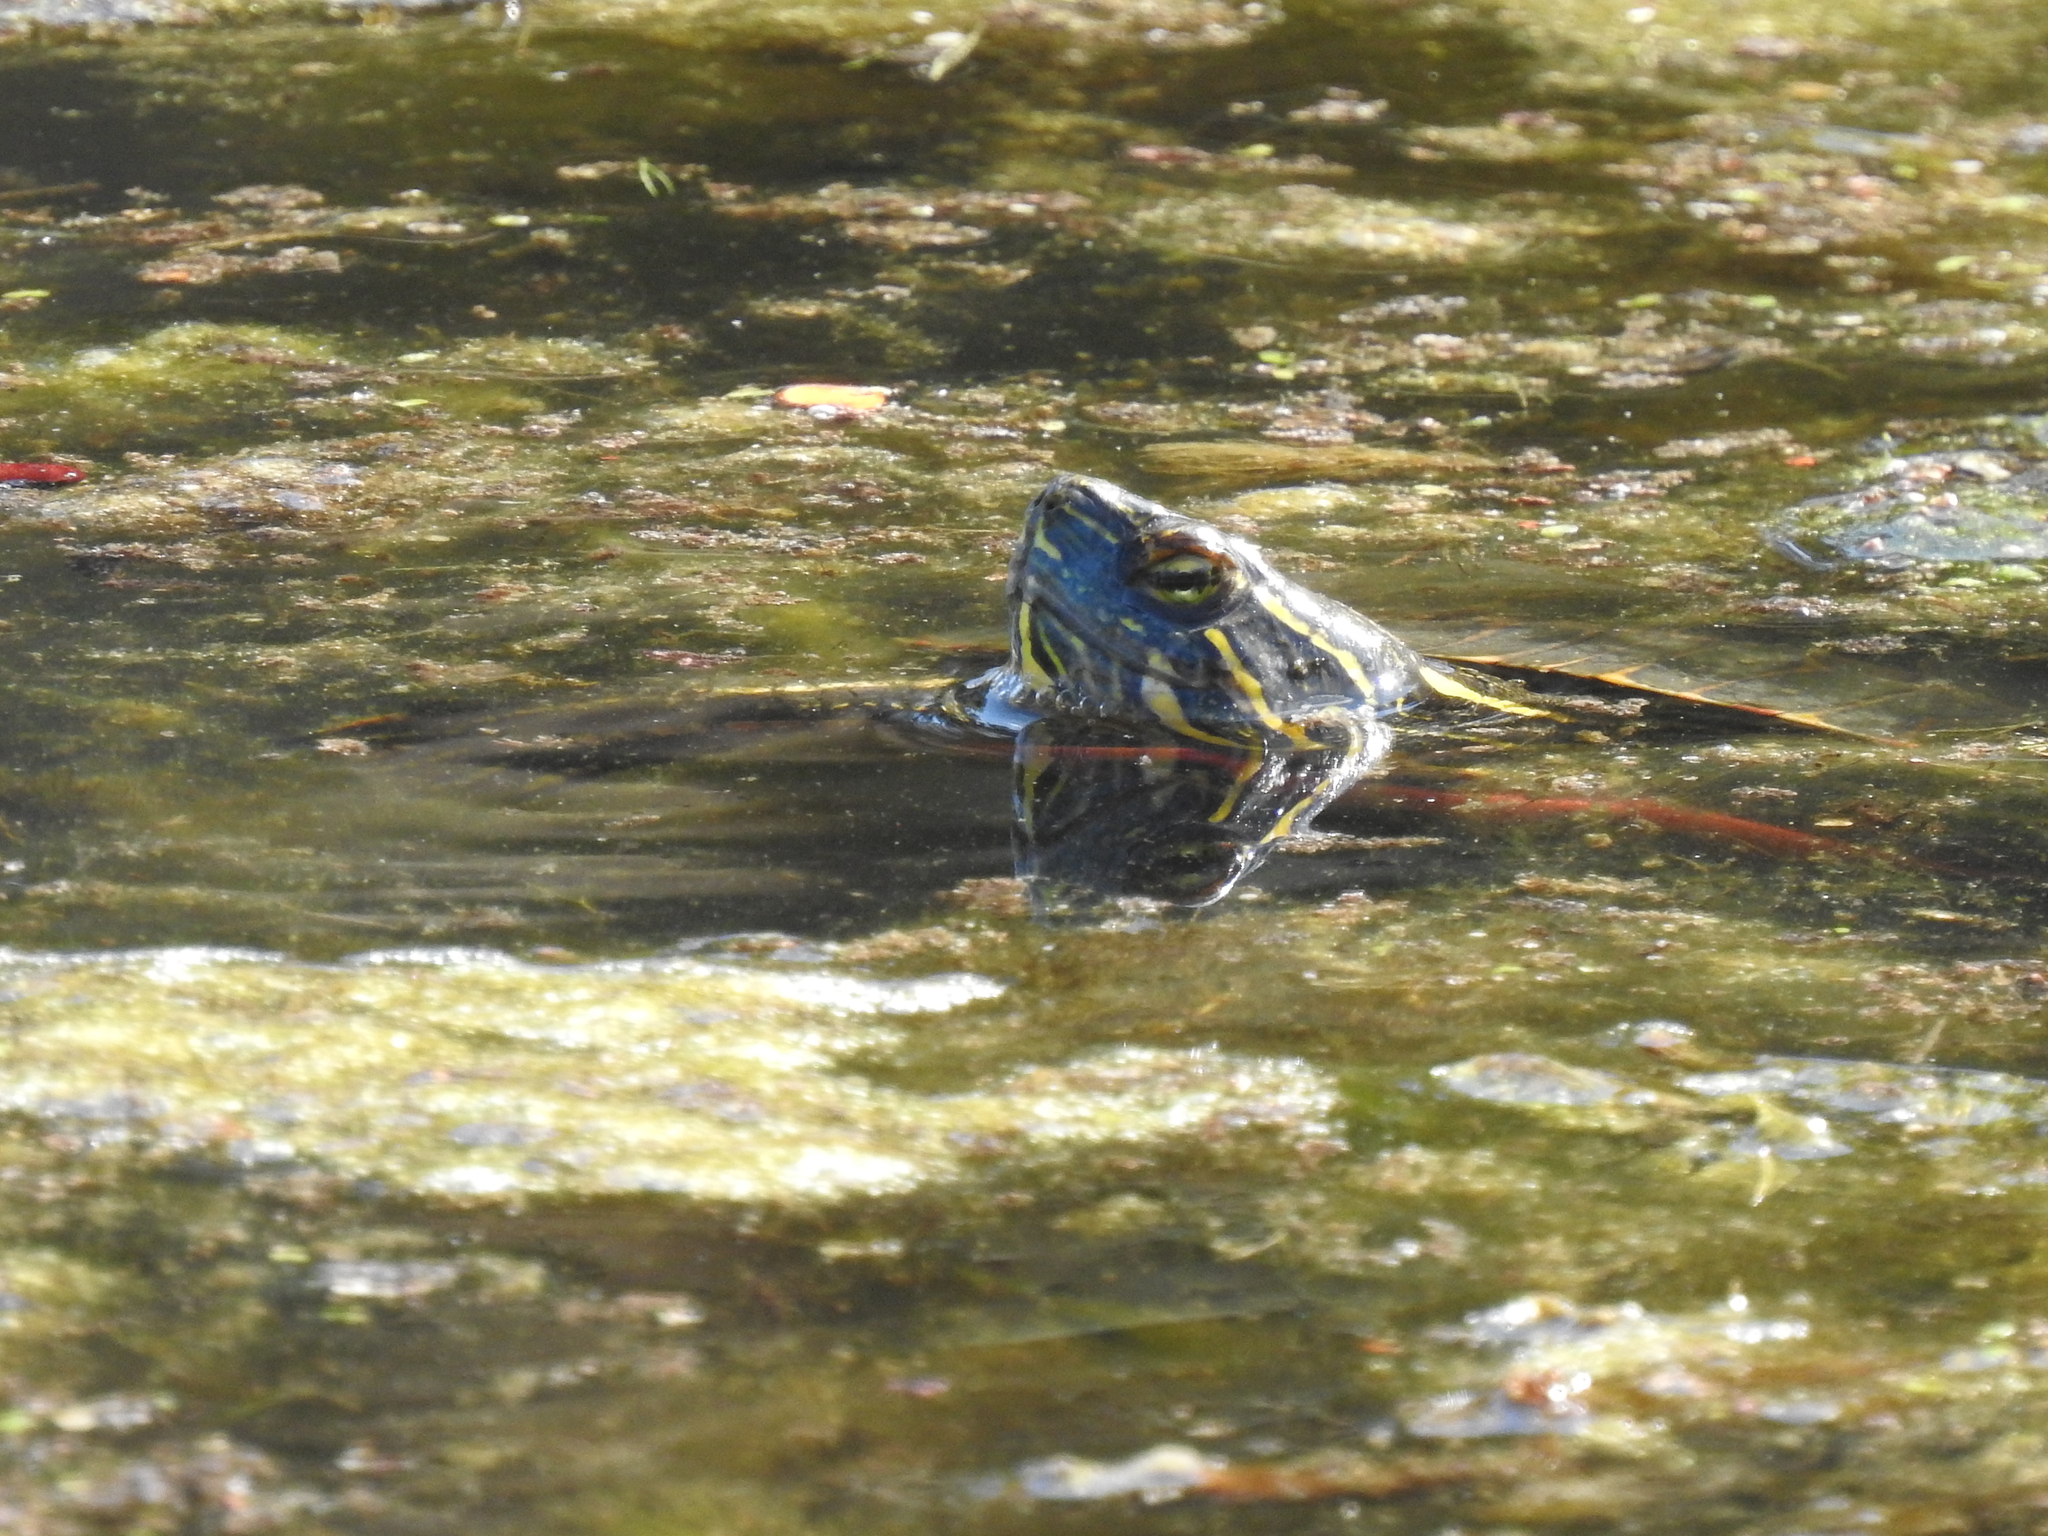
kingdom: Animalia
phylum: Chordata
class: Testudines
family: Emydidae
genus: Chrysemys
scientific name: Chrysemys picta
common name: Painted turtle
